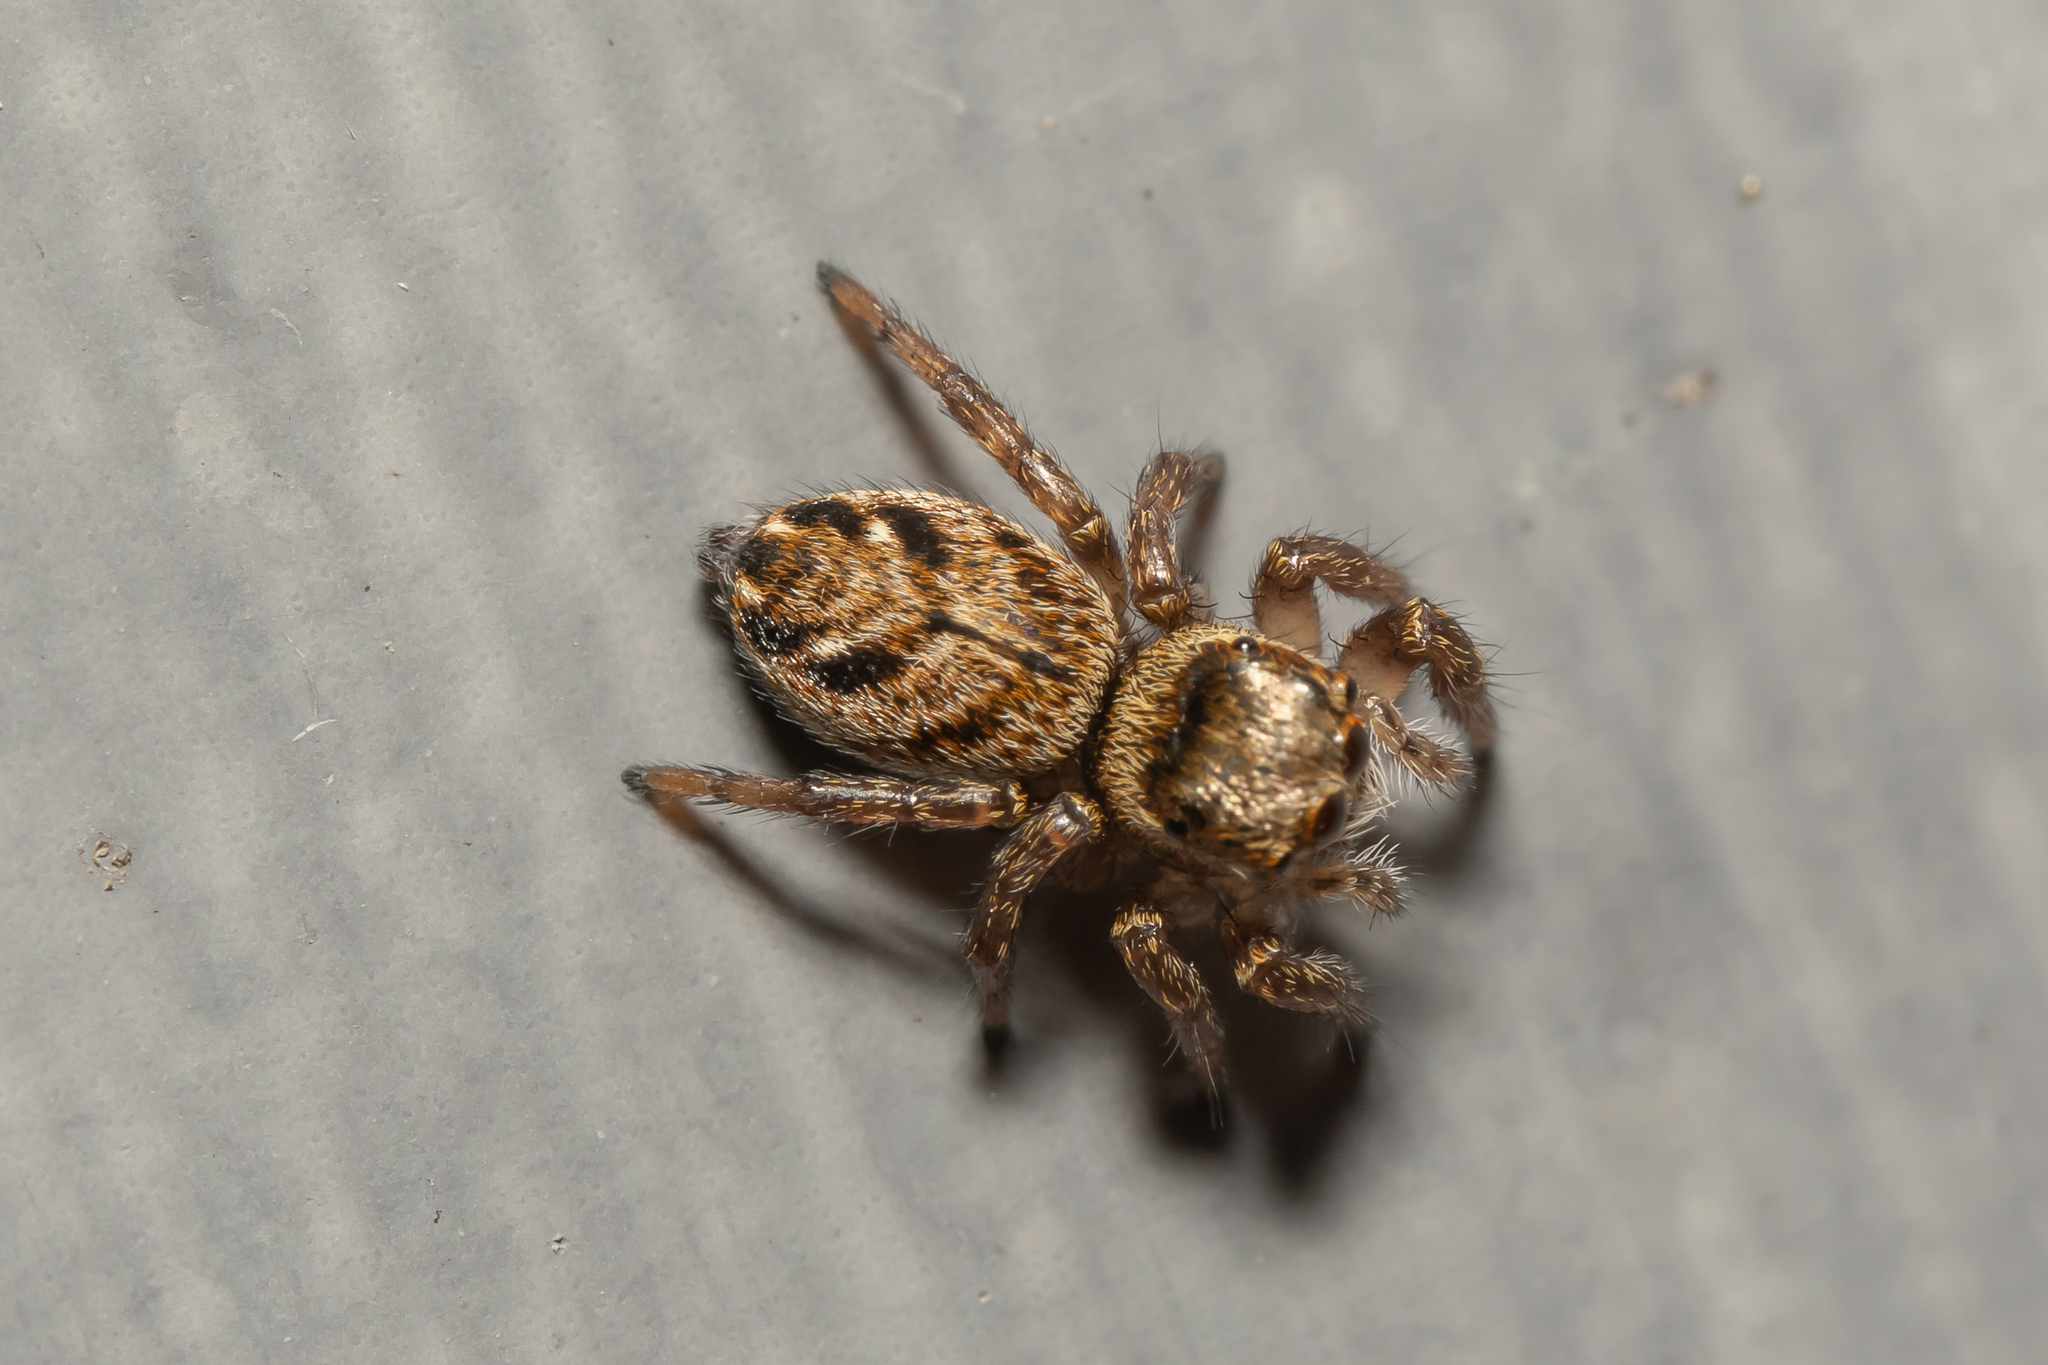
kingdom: Animalia
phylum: Arthropoda
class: Arachnida
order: Araneae
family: Salticidae
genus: Evarcha
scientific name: Evarcha arcuata
